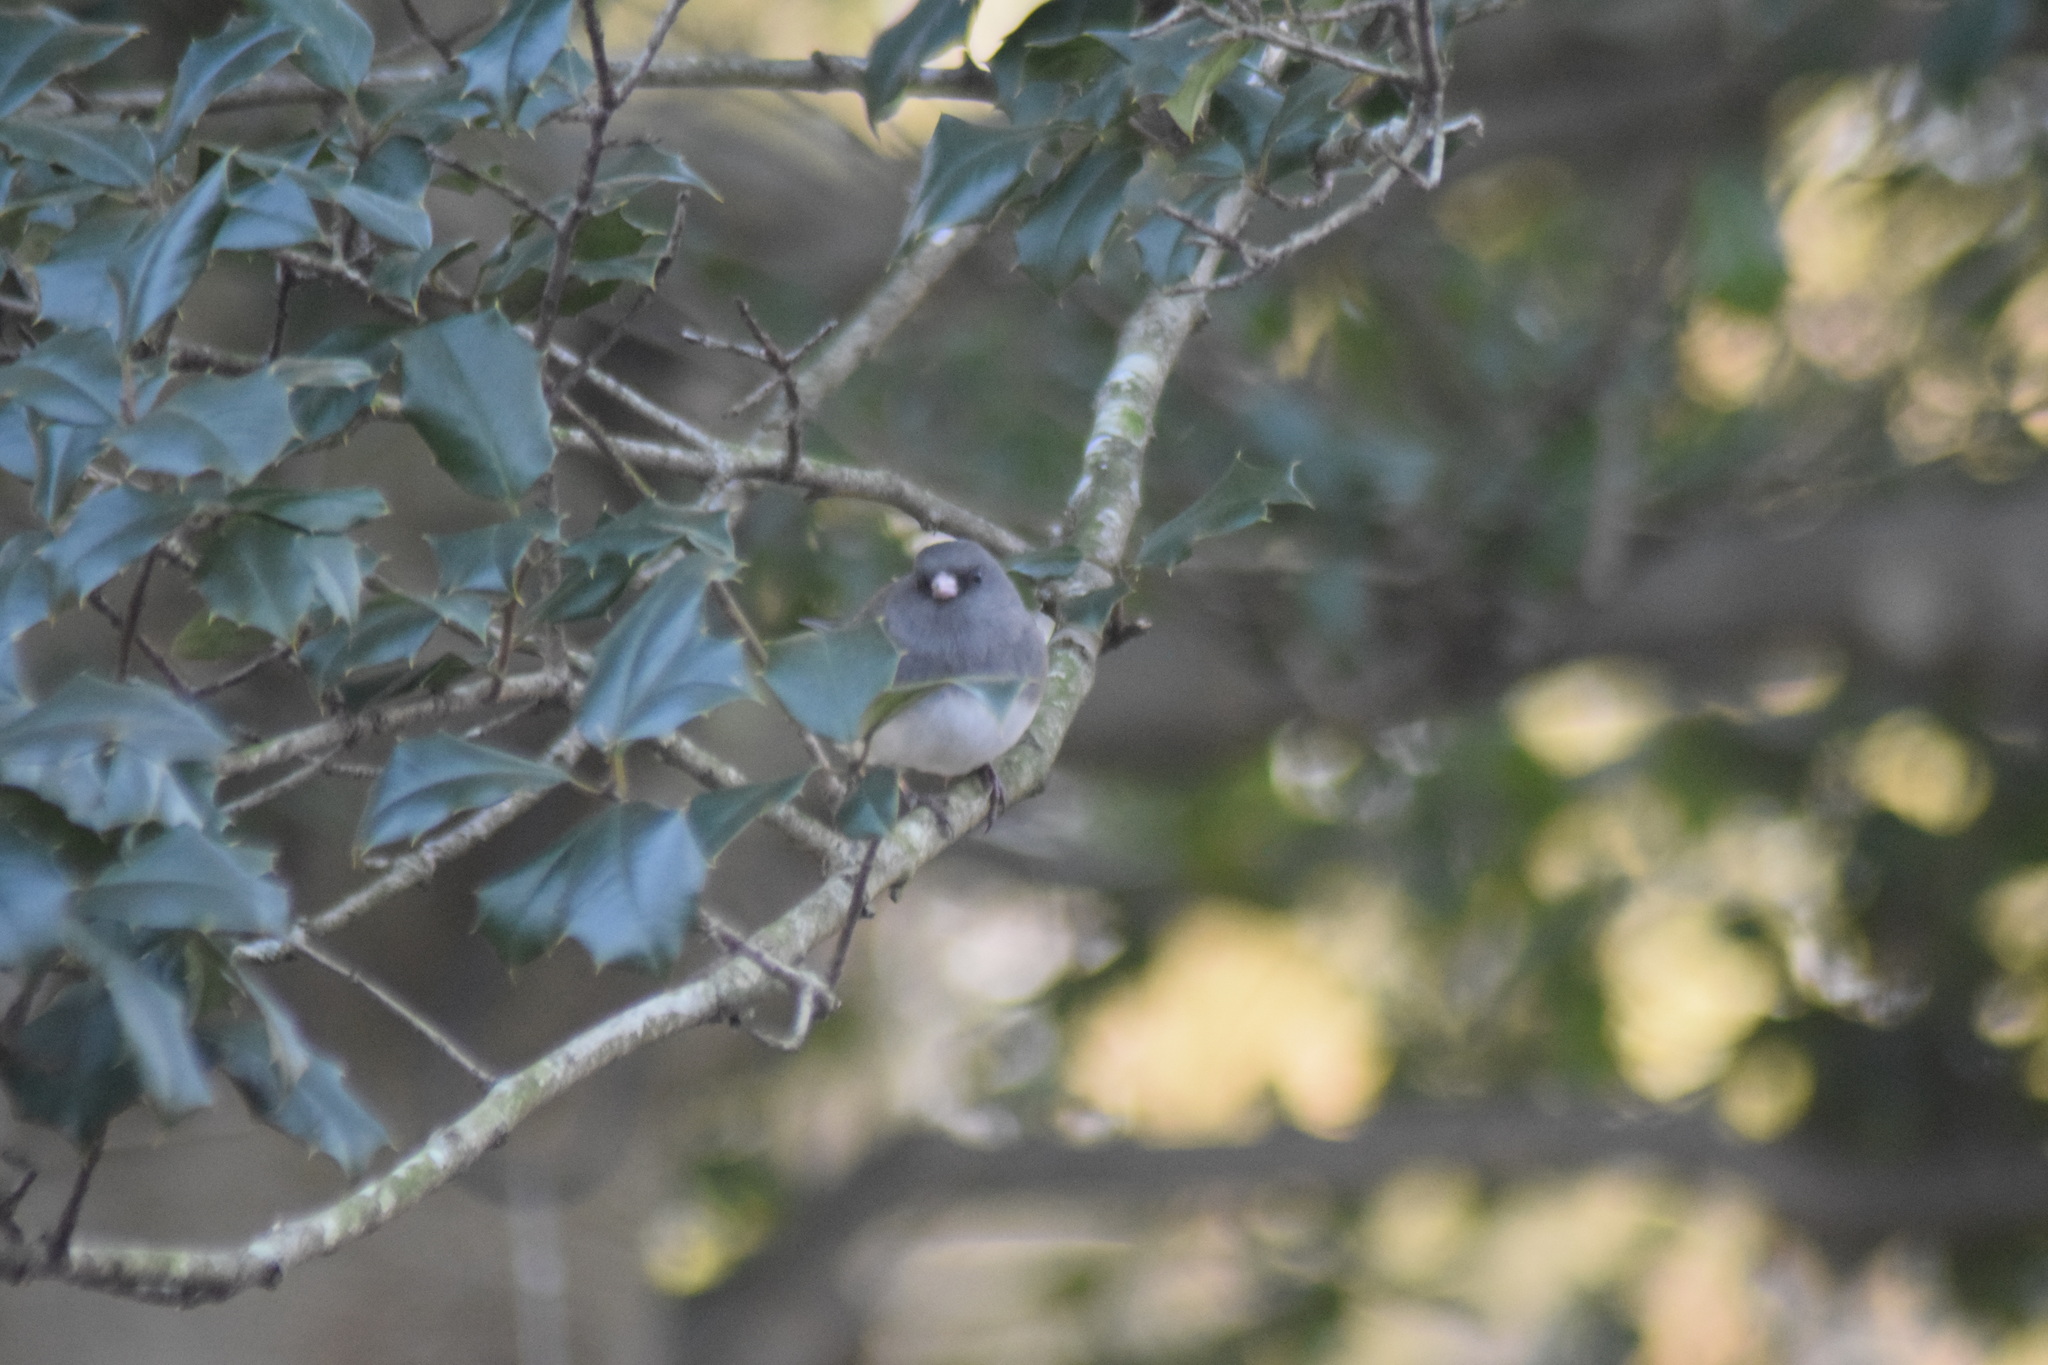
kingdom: Animalia
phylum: Chordata
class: Aves
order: Passeriformes
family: Passerellidae
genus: Junco
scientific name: Junco hyemalis
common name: Dark-eyed junco
